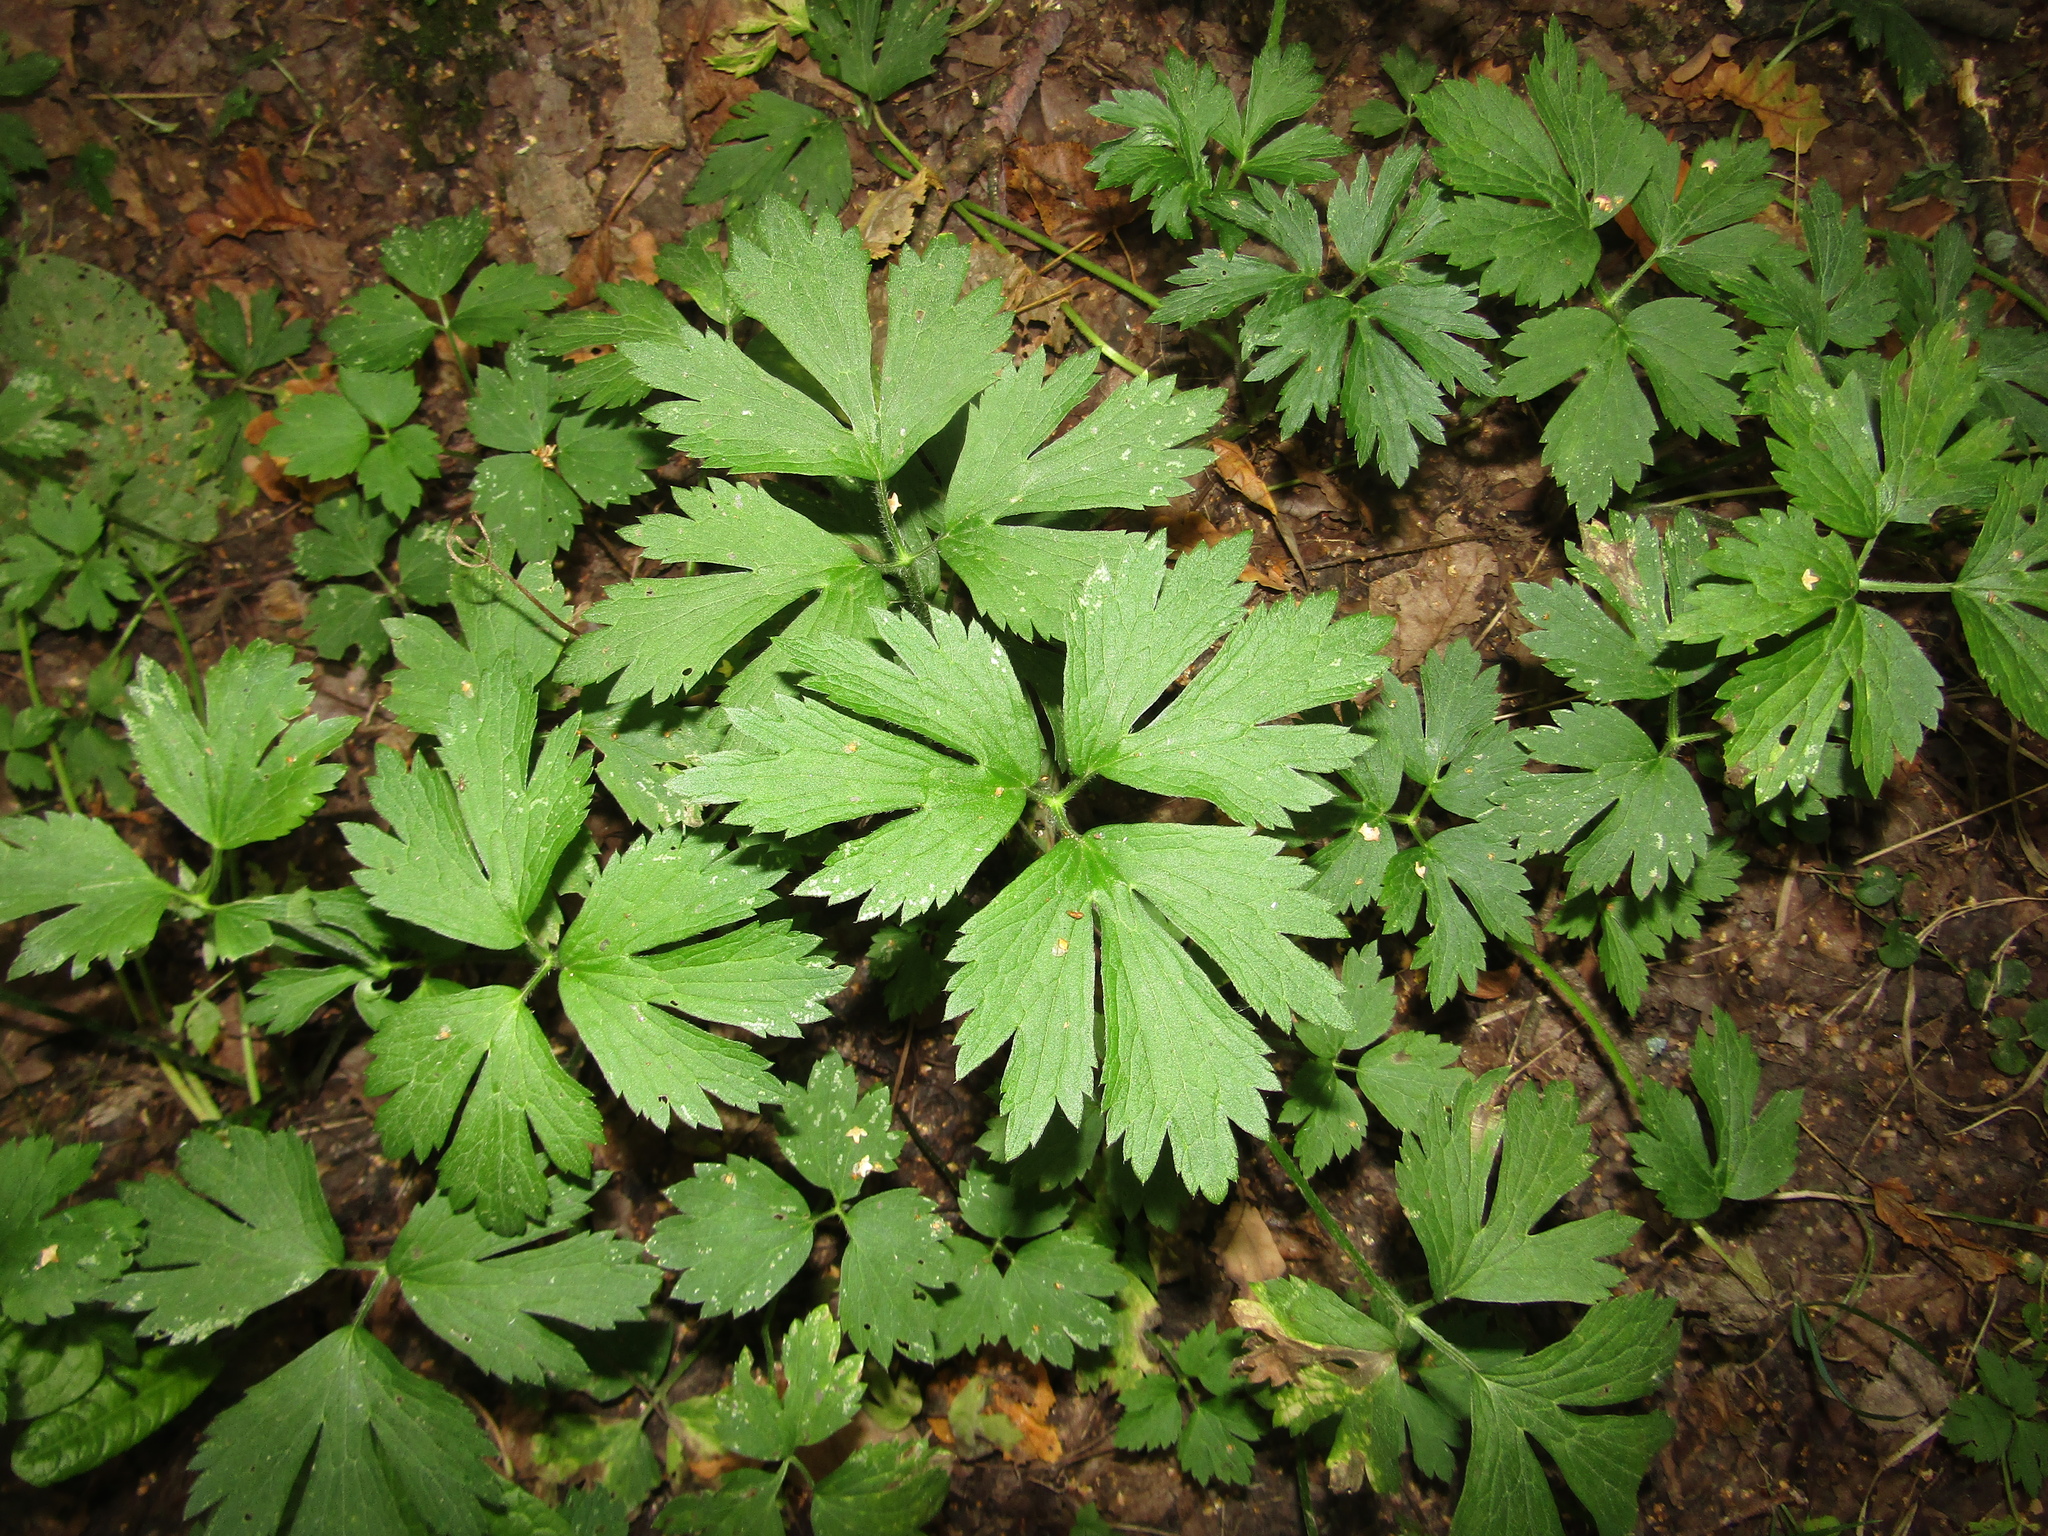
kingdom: Plantae
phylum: Tracheophyta
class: Magnoliopsida
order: Ranunculales
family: Ranunculaceae
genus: Ranunculus
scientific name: Ranunculus repens
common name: Creeping buttercup
